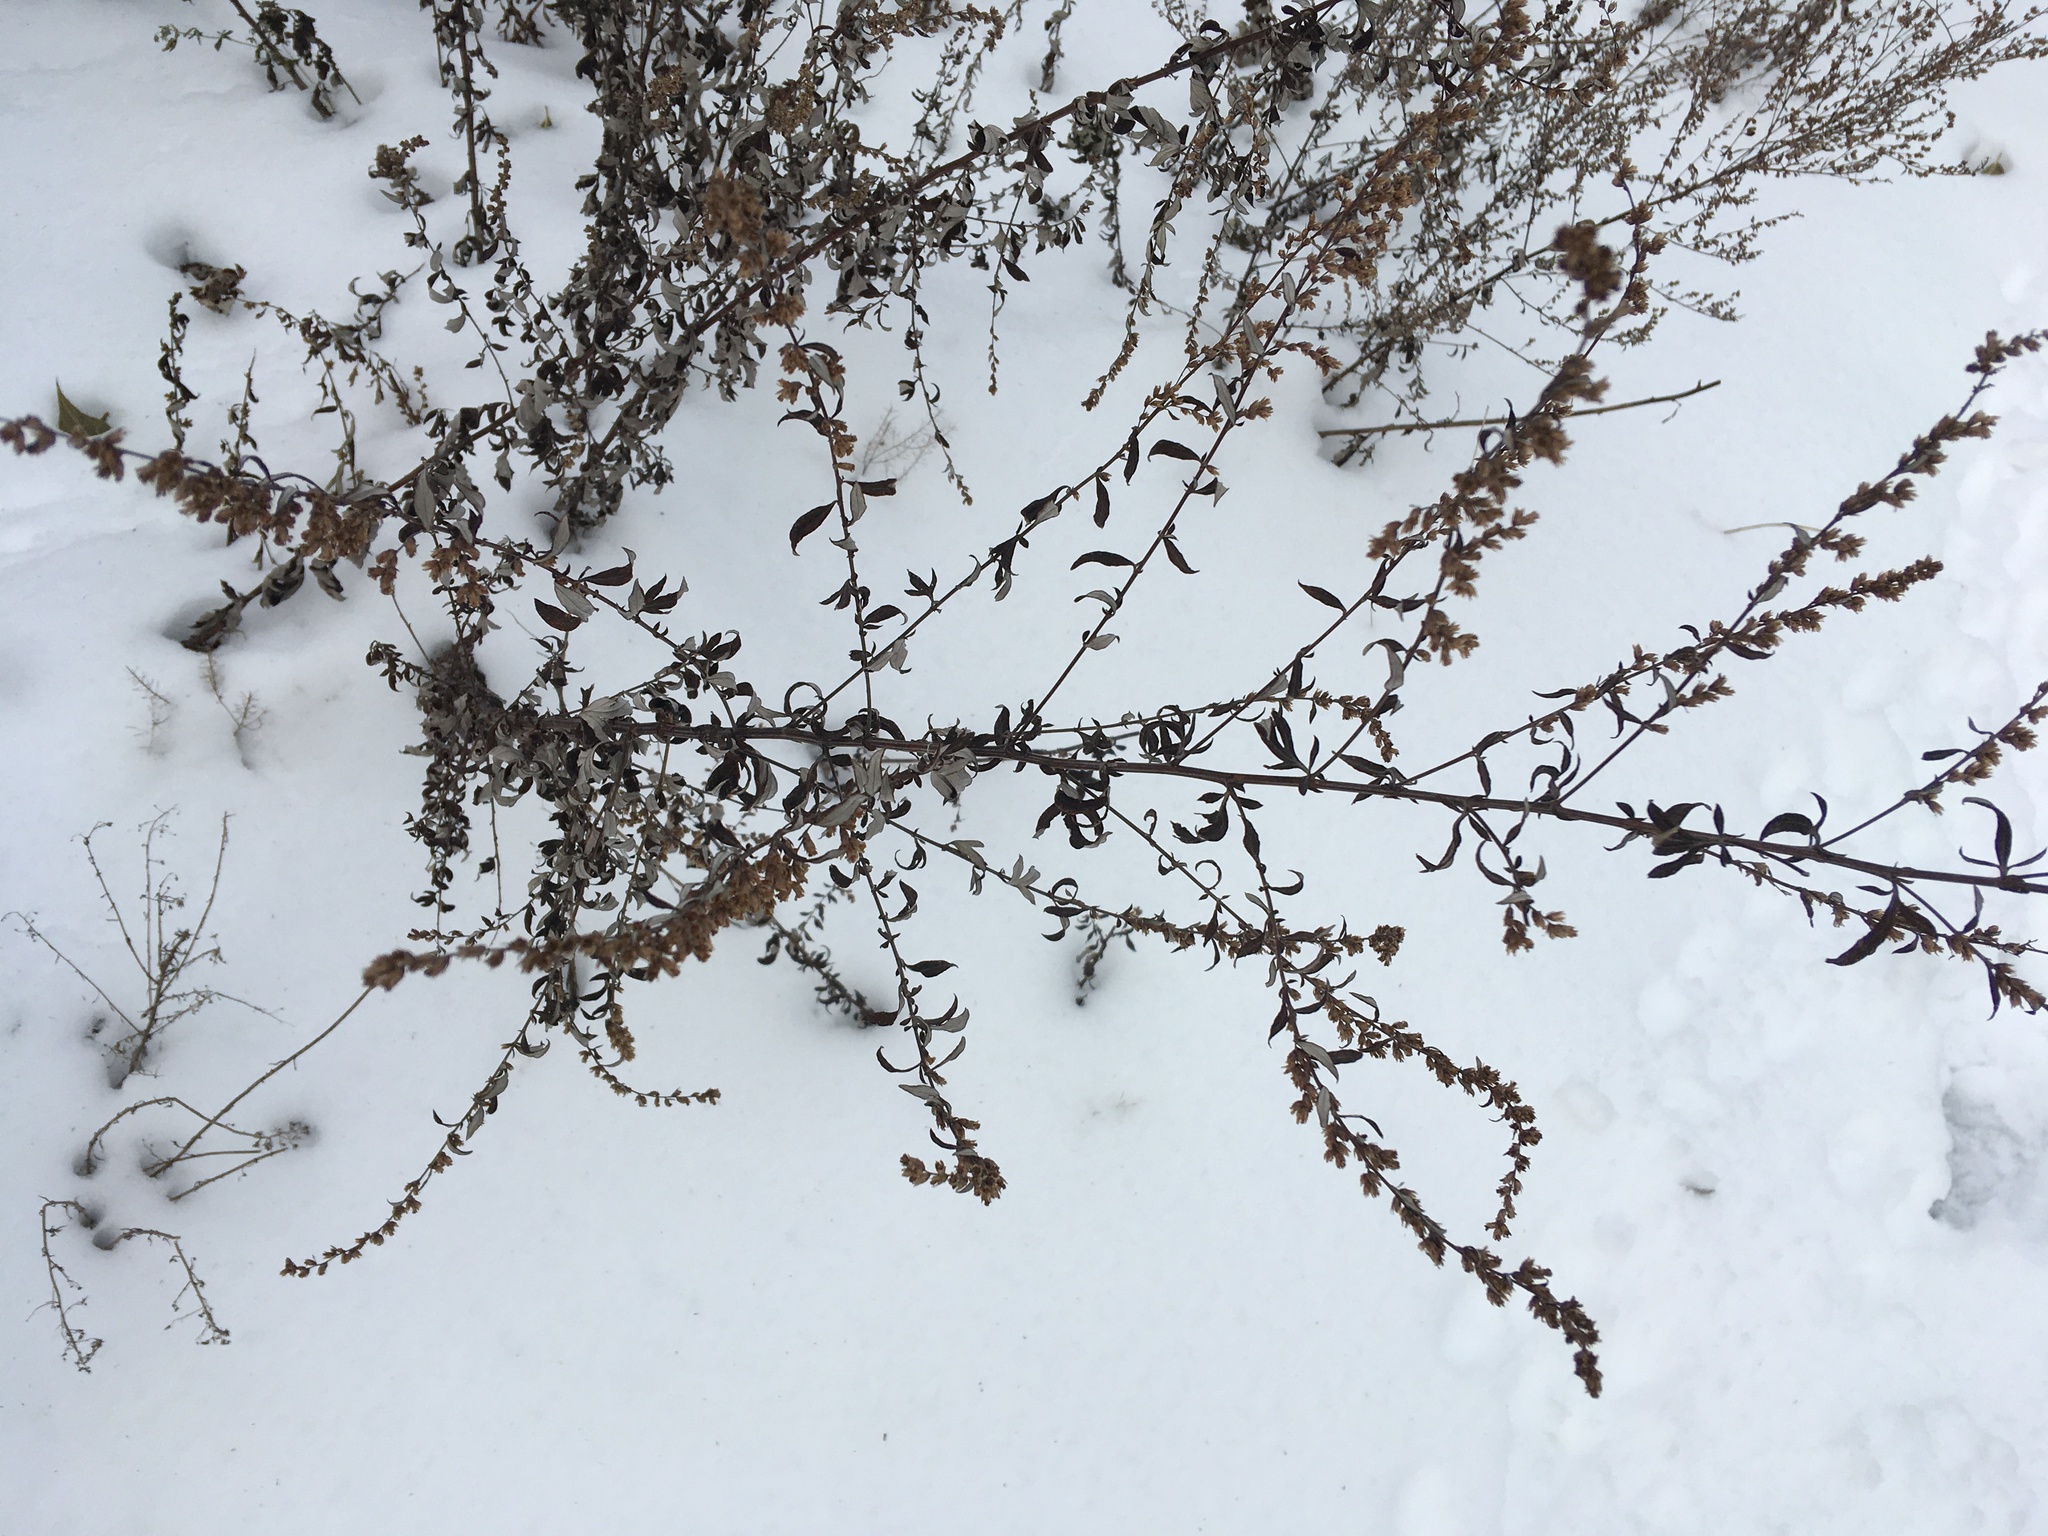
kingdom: Plantae
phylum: Tracheophyta
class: Magnoliopsida
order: Asterales
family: Asteraceae
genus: Artemisia
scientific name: Artemisia vulgaris
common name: Mugwort
